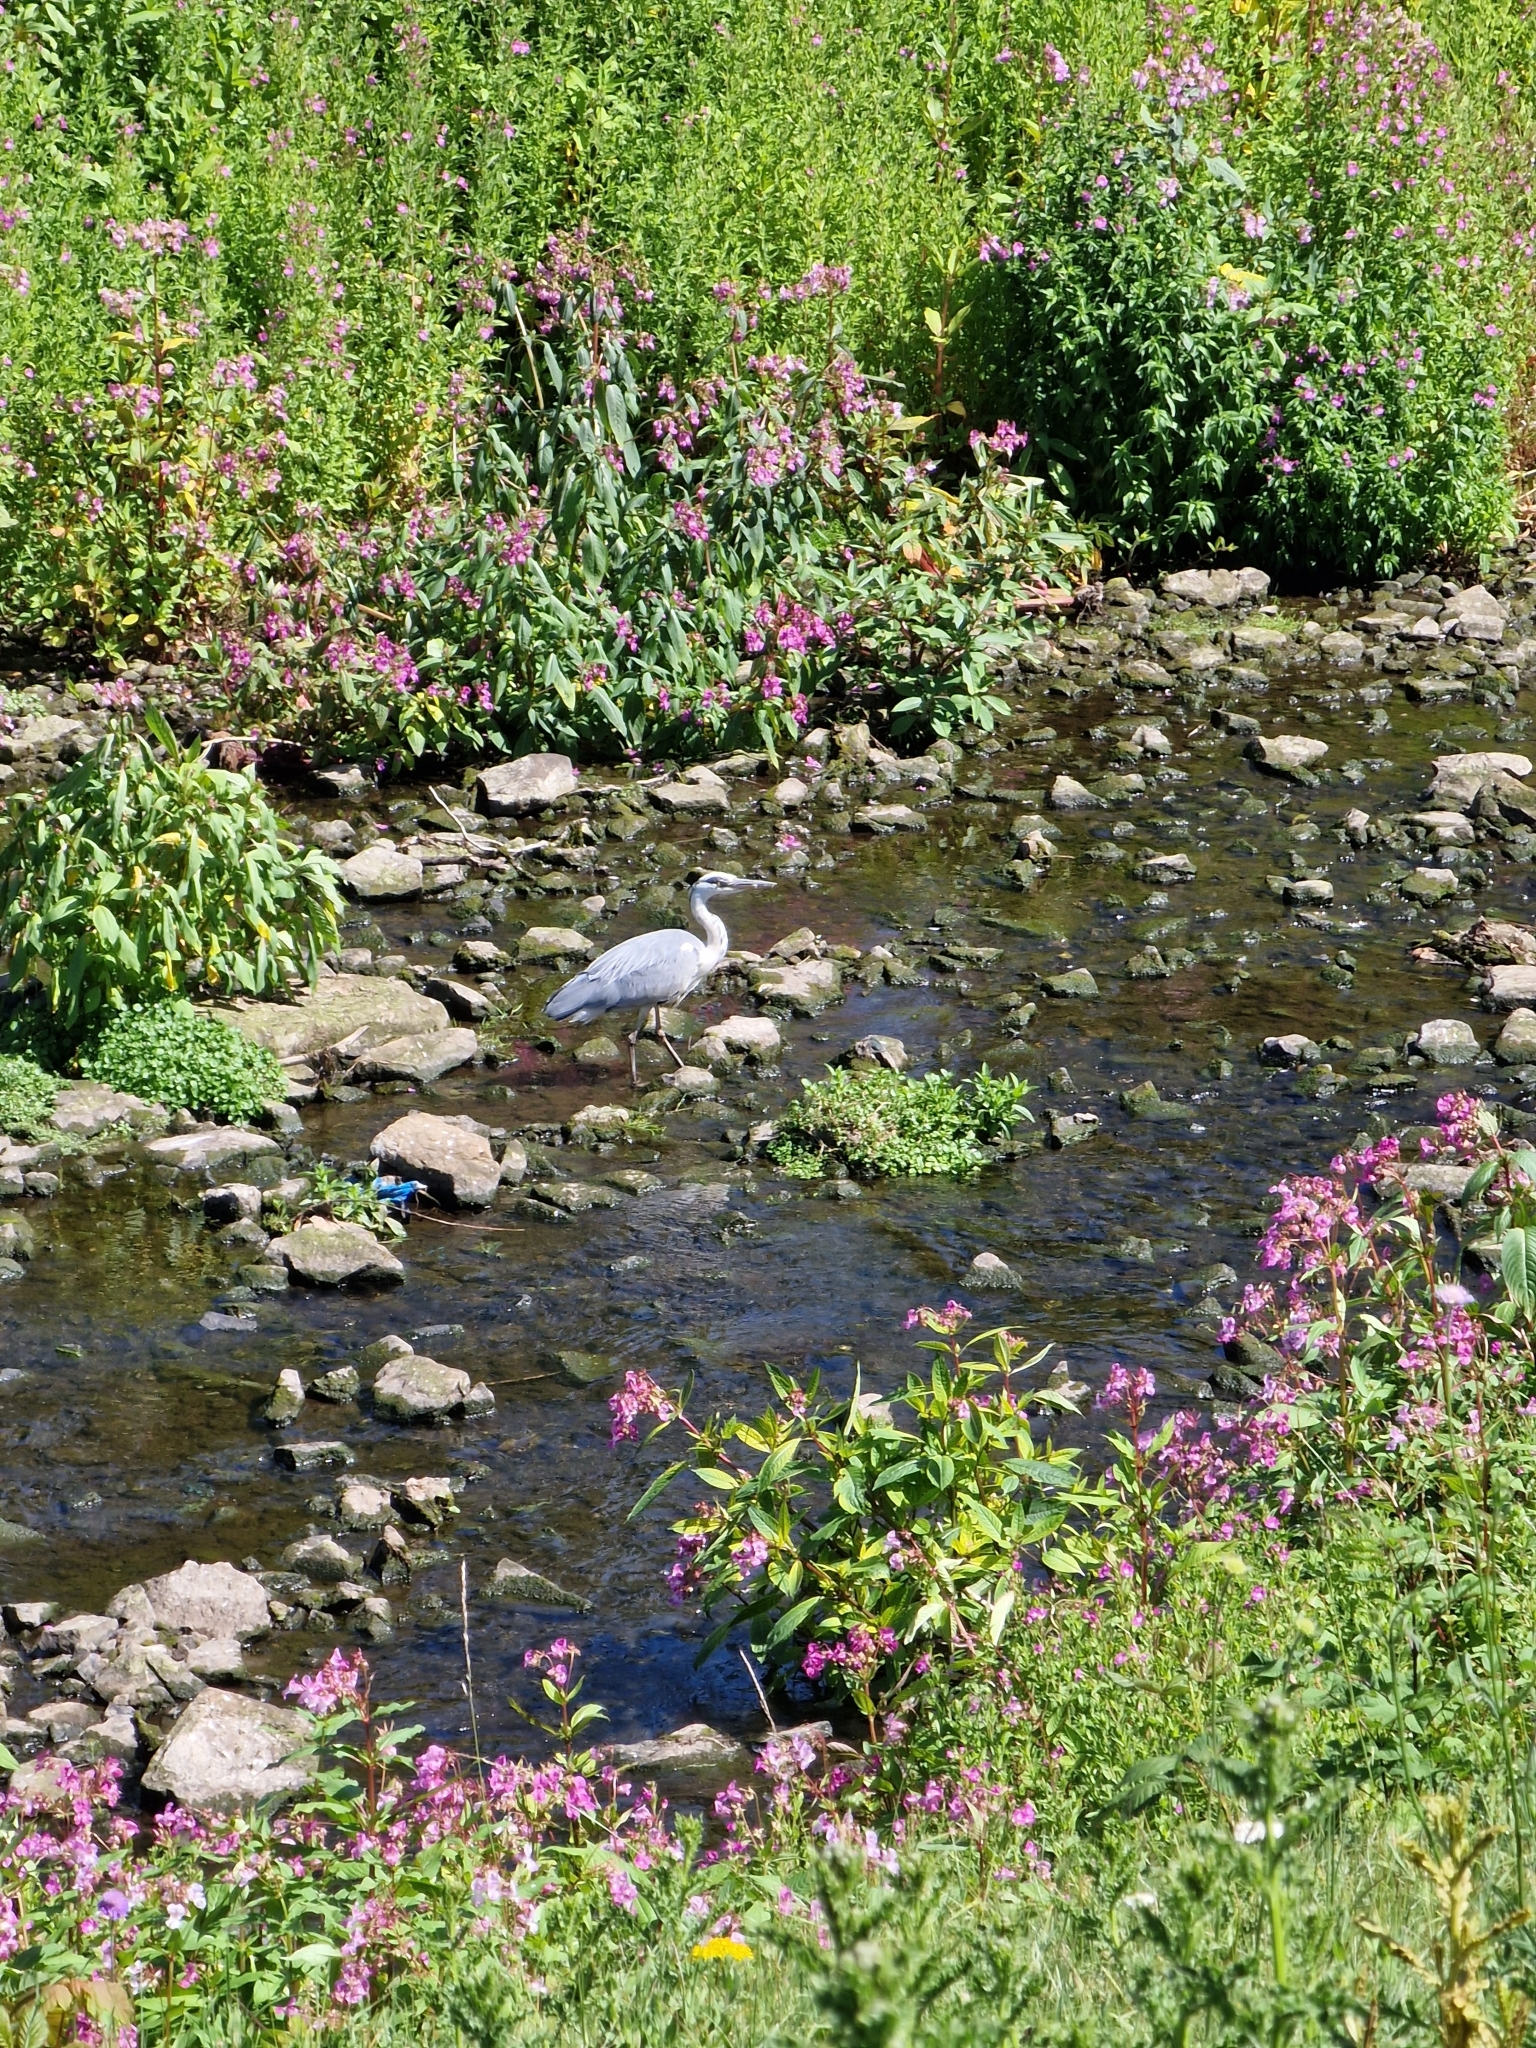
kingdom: Animalia
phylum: Chordata
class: Aves
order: Pelecaniformes
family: Ardeidae
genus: Ardea
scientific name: Ardea cinerea
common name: Grey heron
